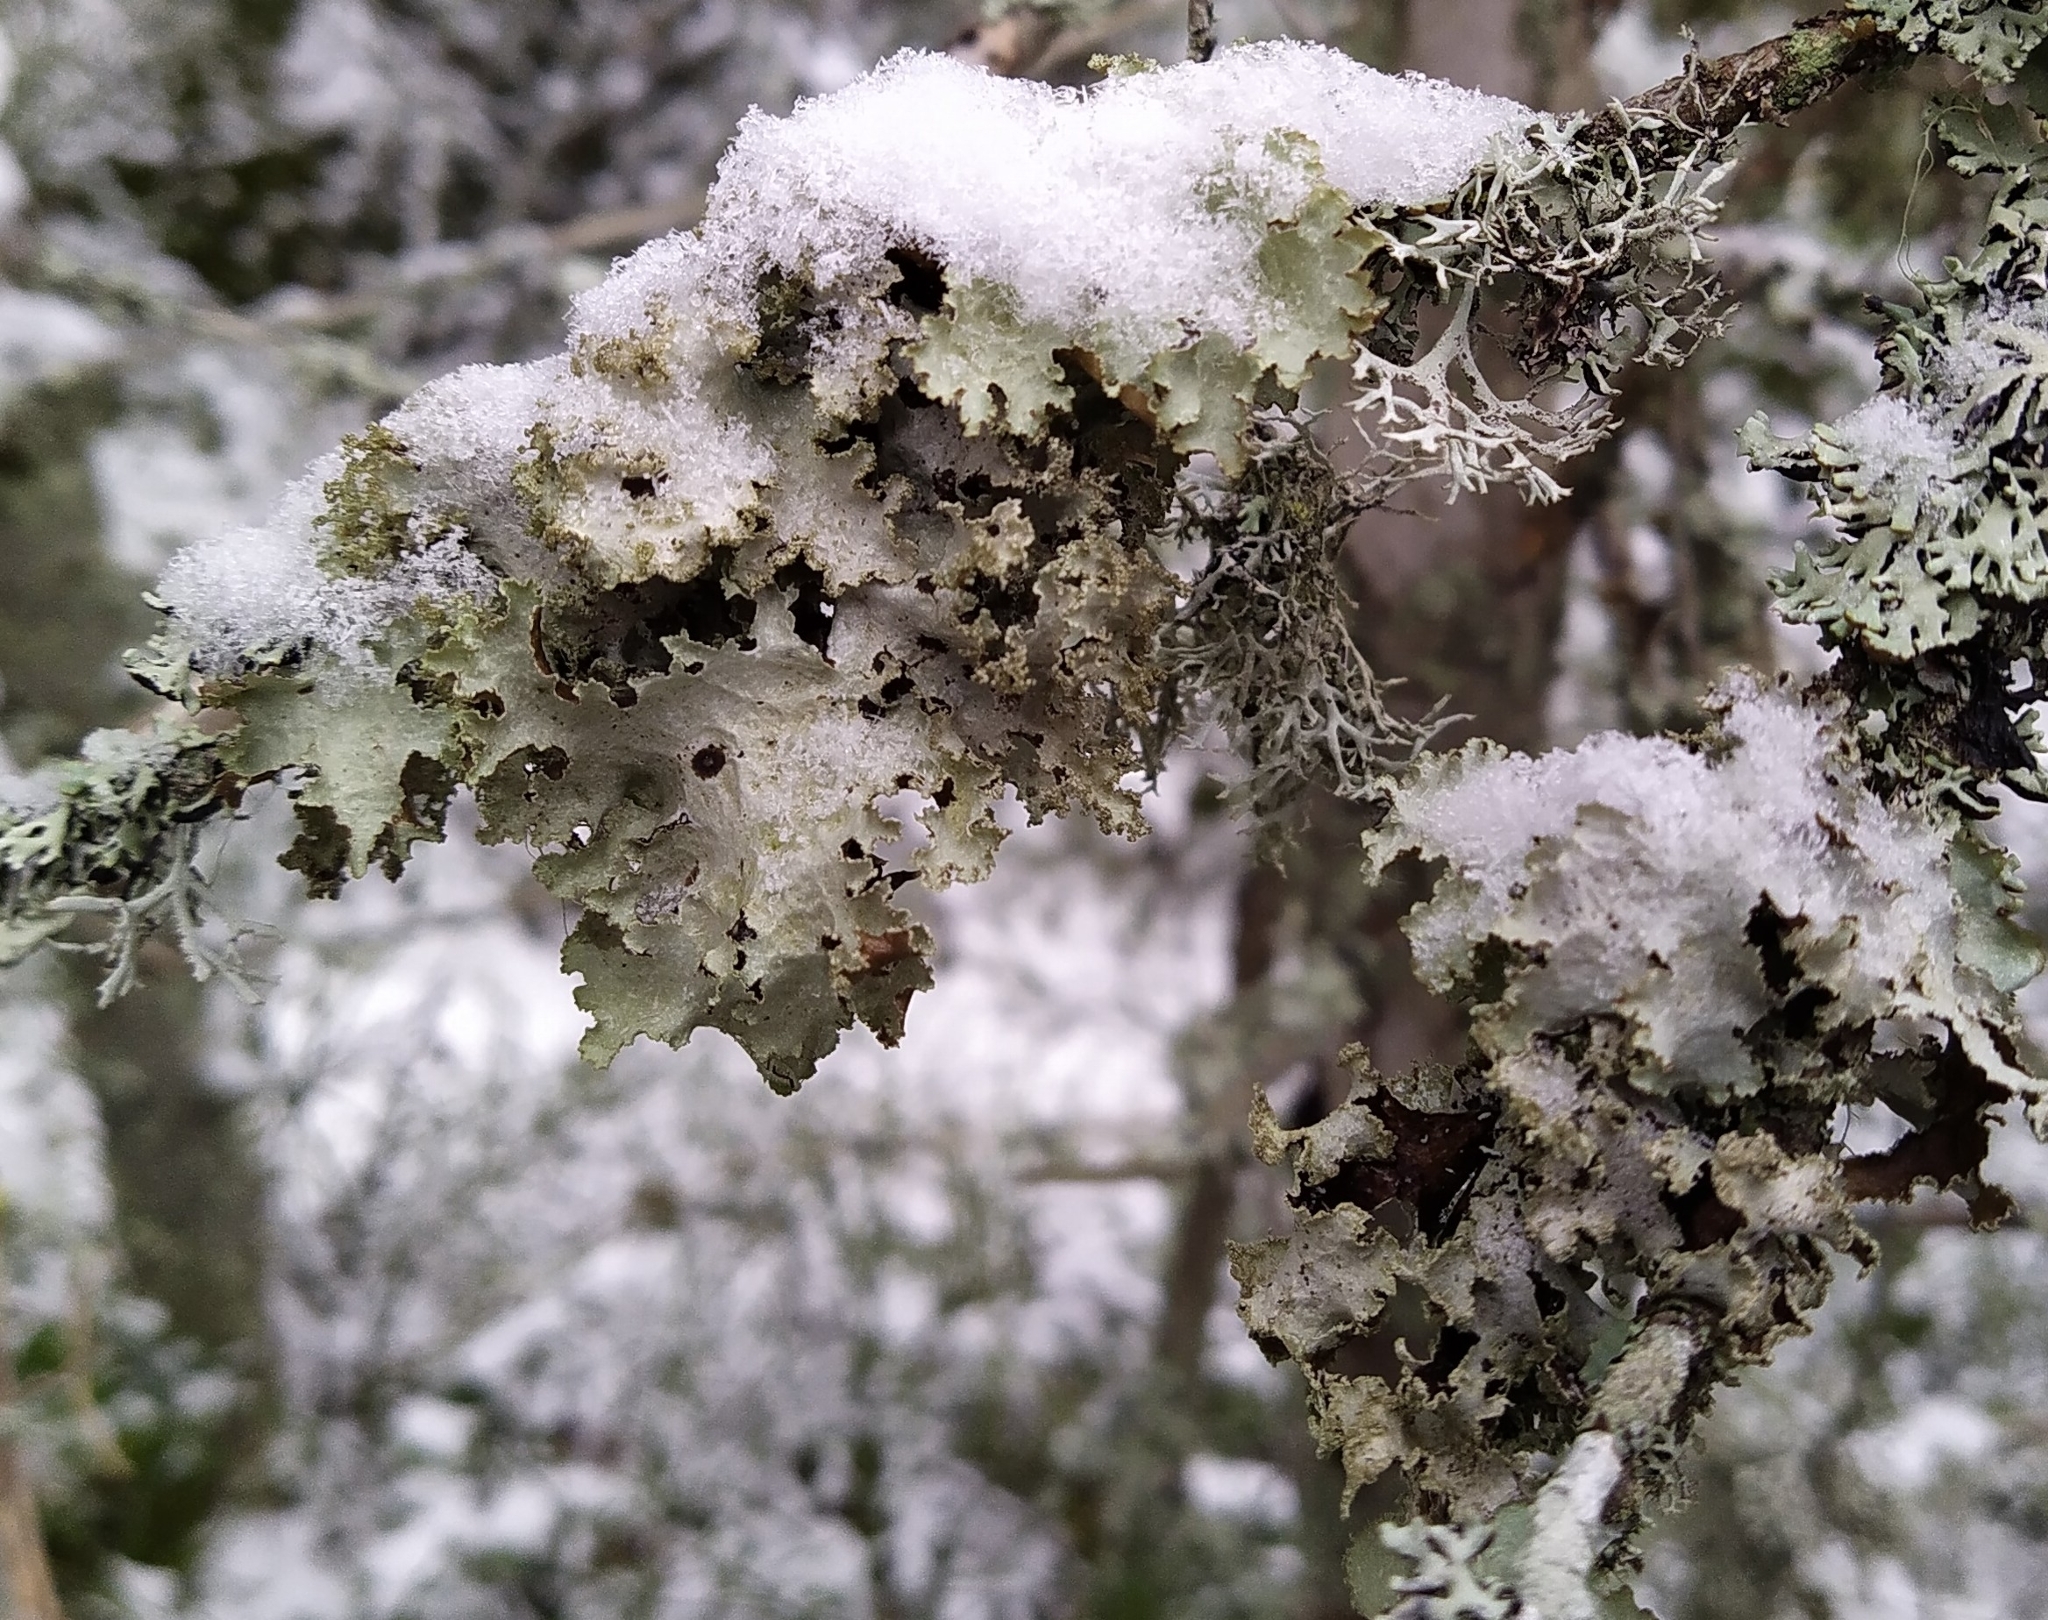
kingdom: Fungi
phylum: Ascomycota
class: Lecanoromycetes
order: Lecanorales
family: Parmeliaceae
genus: Platismatia
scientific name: Platismatia glauca
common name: Varied rag lichen
